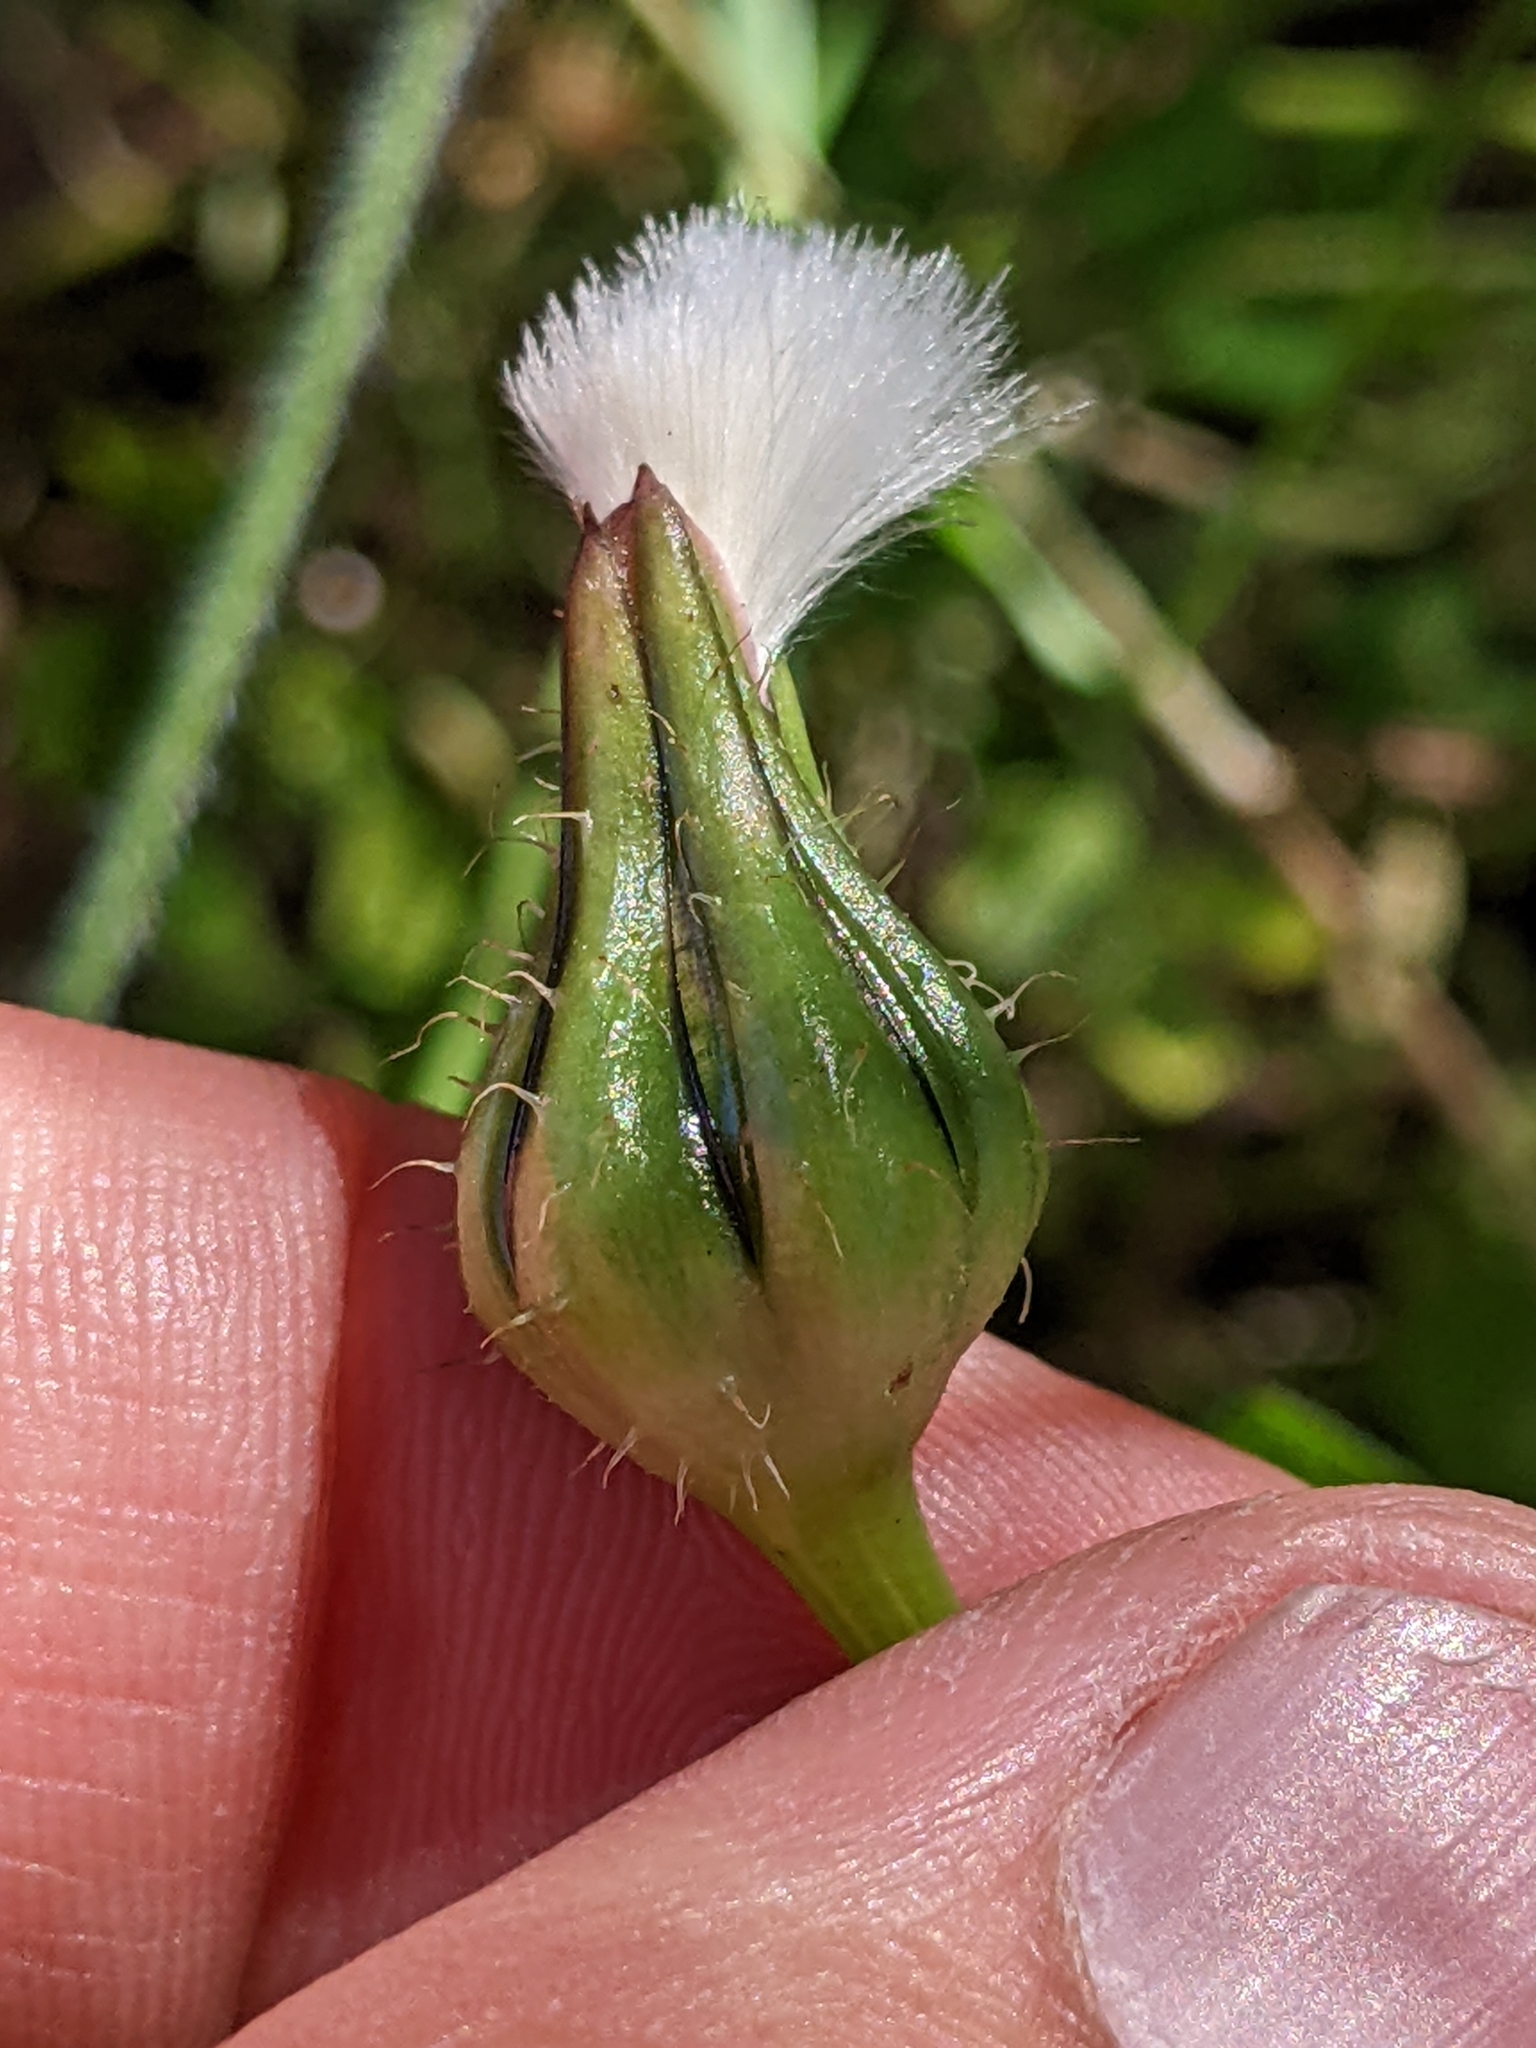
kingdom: Plantae
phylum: Tracheophyta
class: Magnoliopsida
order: Asterales
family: Asteraceae
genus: Urospermum
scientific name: Urospermum picroides
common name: False hawkbit
